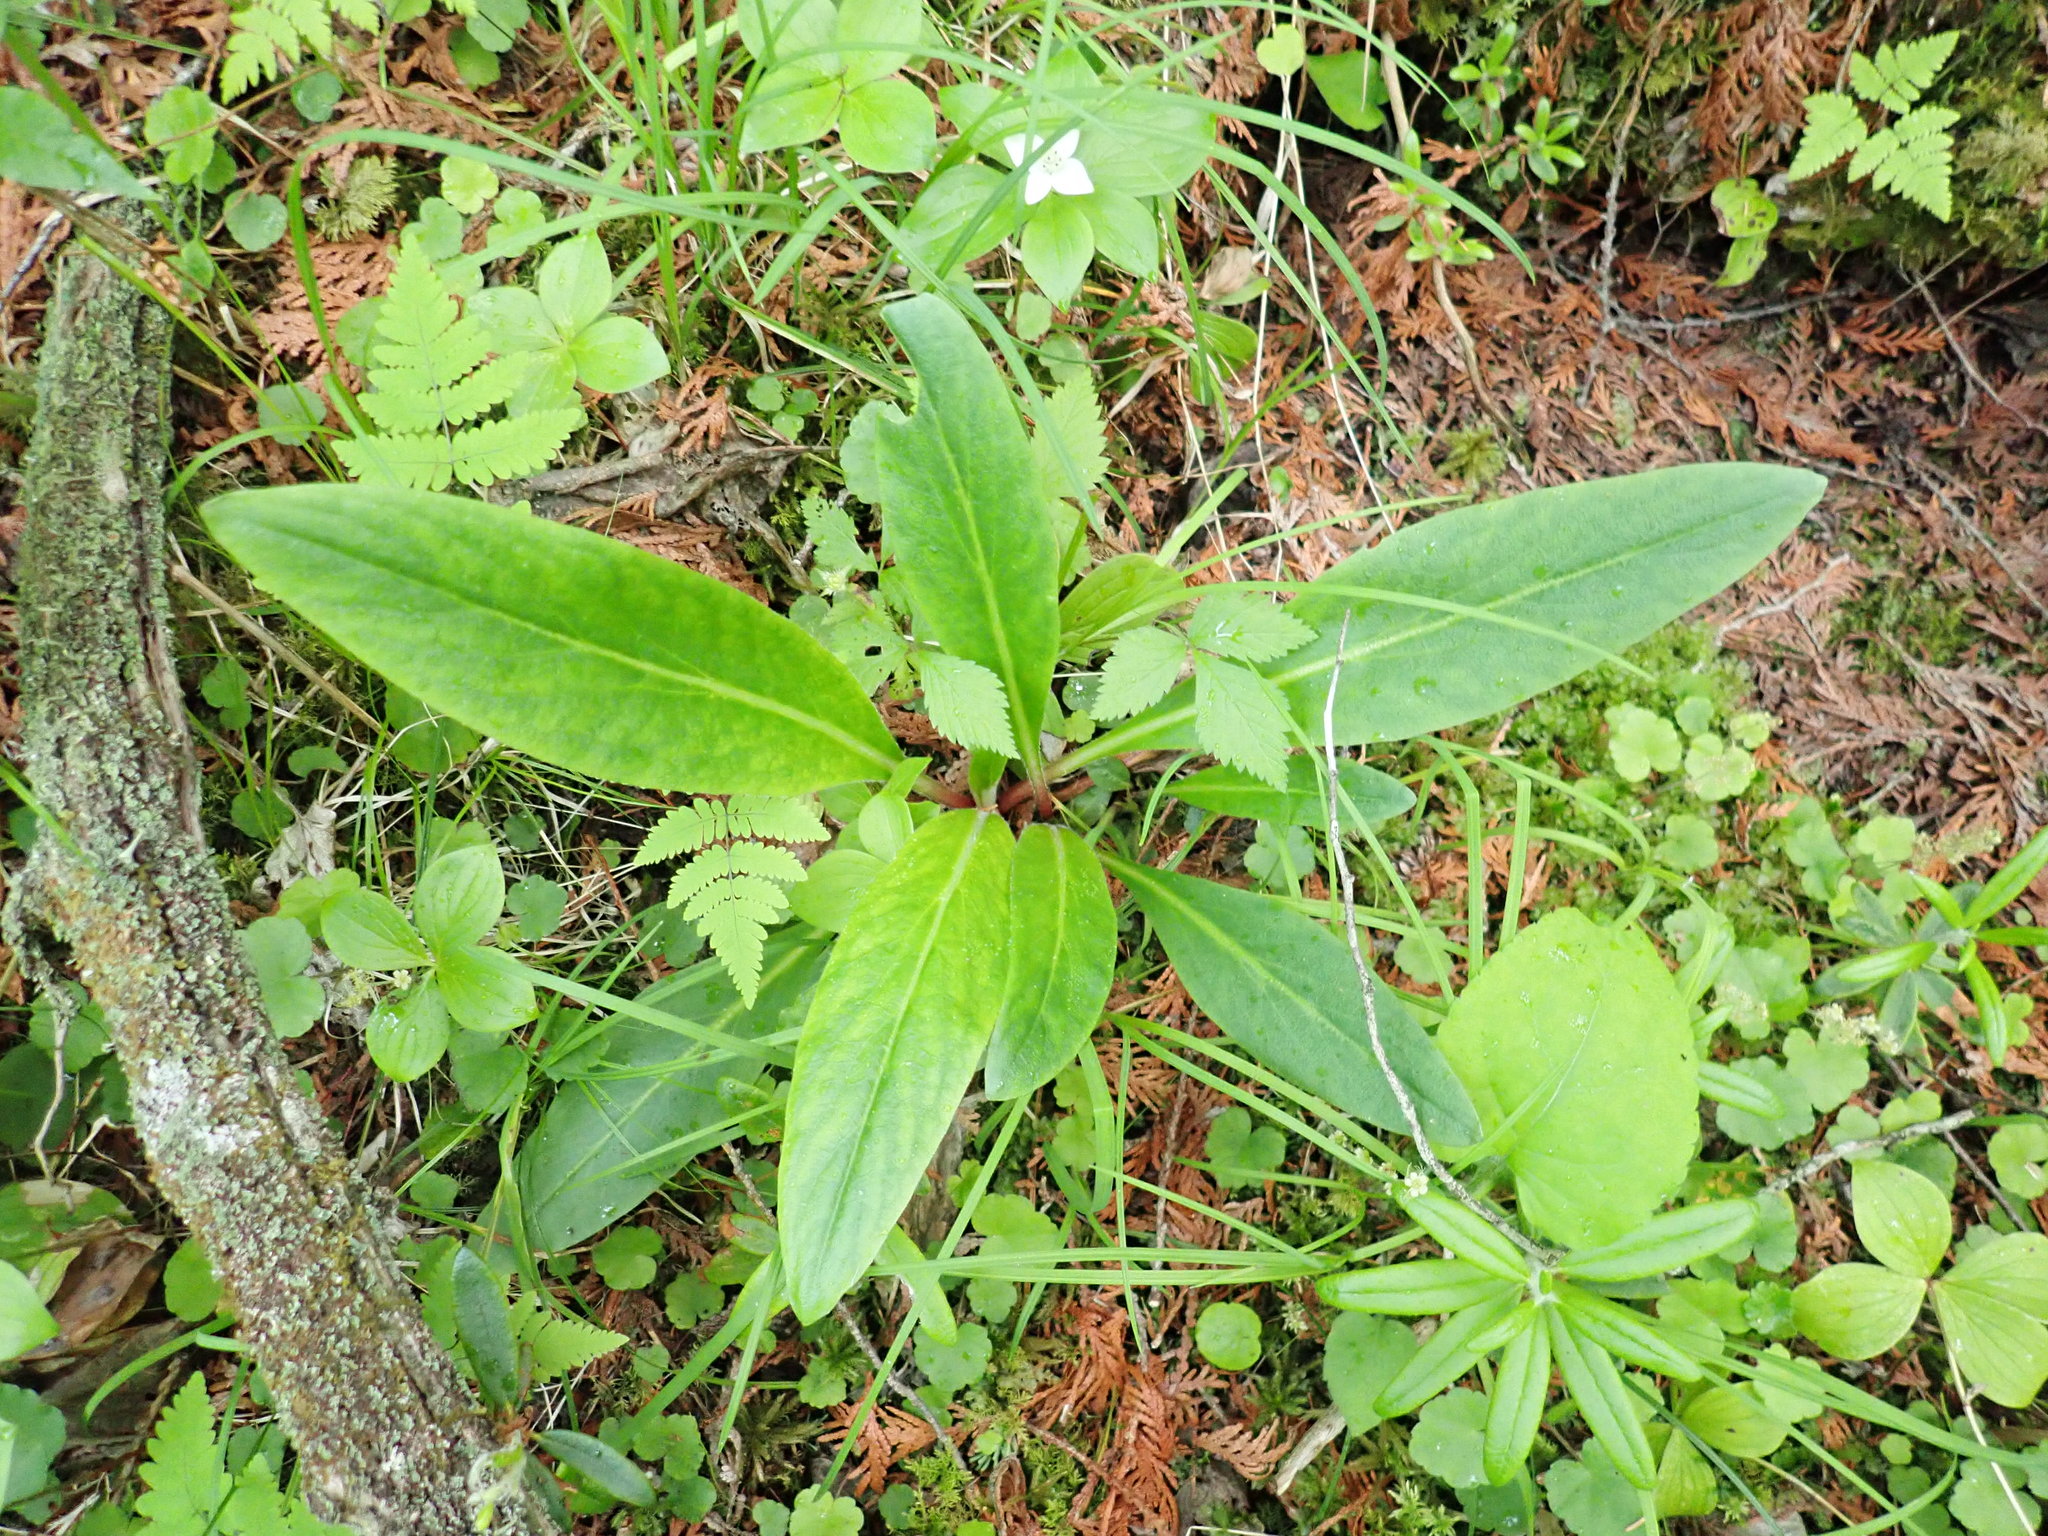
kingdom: Plantae
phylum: Tracheophyta
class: Magnoliopsida
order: Saxifragales
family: Saxifragaceae
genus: Micranthes
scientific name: Micranthes pensylvanica
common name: Marsh saxifrage
